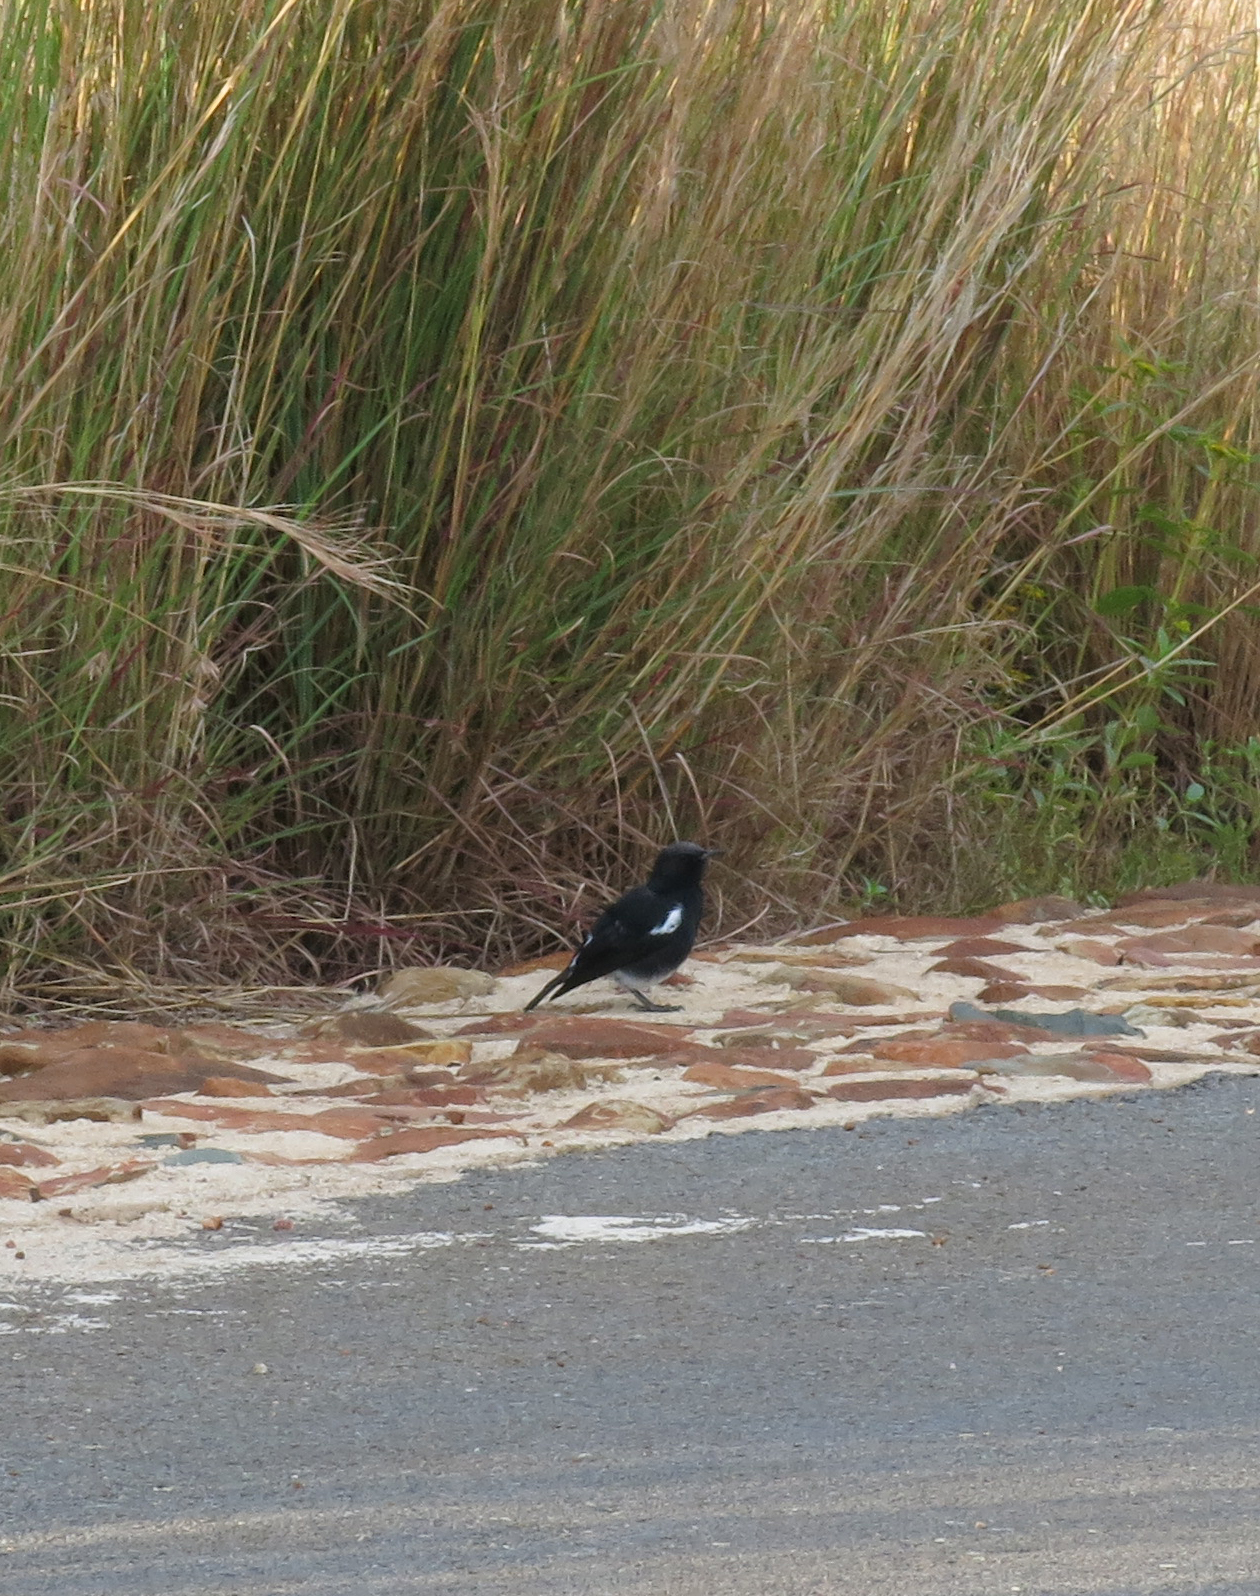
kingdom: Animalia
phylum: Chordata
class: Aves
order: Passeriformes
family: Muscicapidae
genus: Oenanthe
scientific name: Oenanthe monticola
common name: Mountain wheatear
